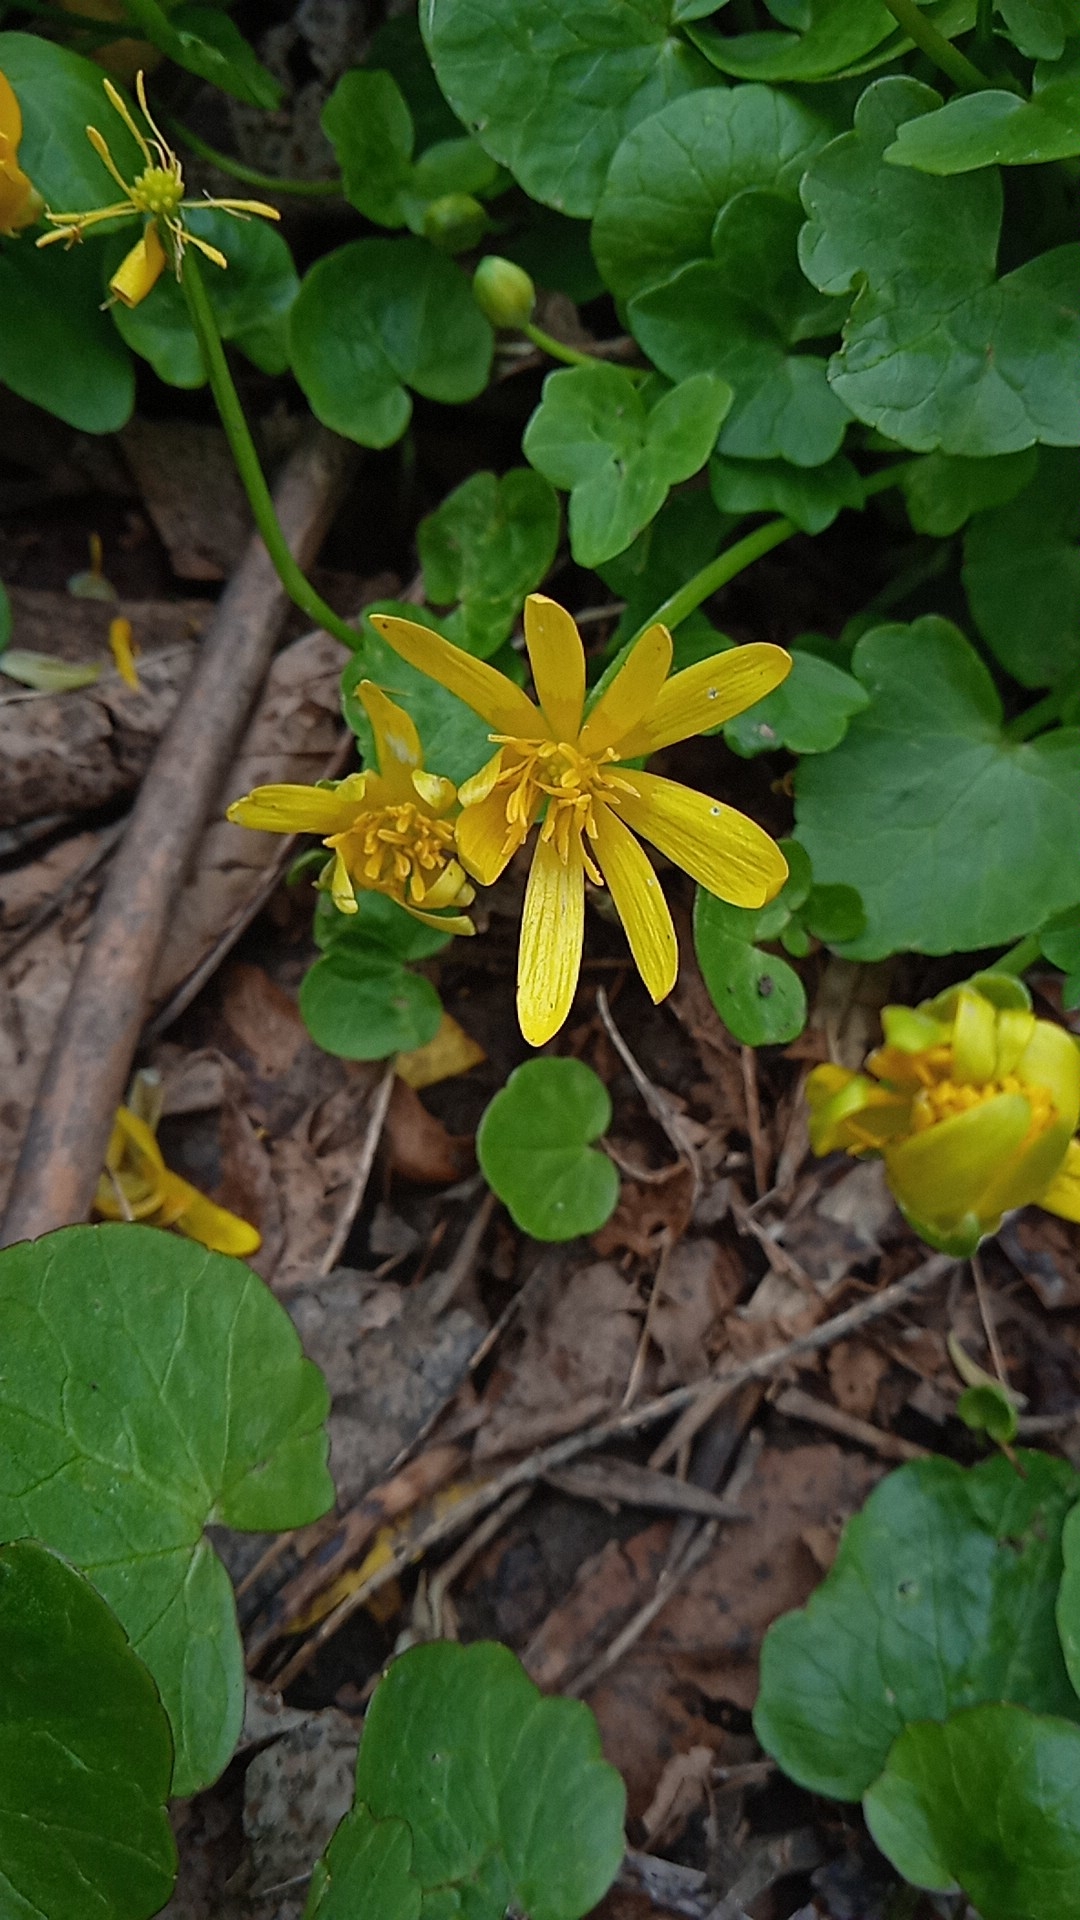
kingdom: Plantae
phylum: Tracheophyta
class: Magnoliopsida
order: Ranunculales
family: Ranunculaceae
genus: Ficaria
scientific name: Ficaria verna
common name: Lesser celandine
